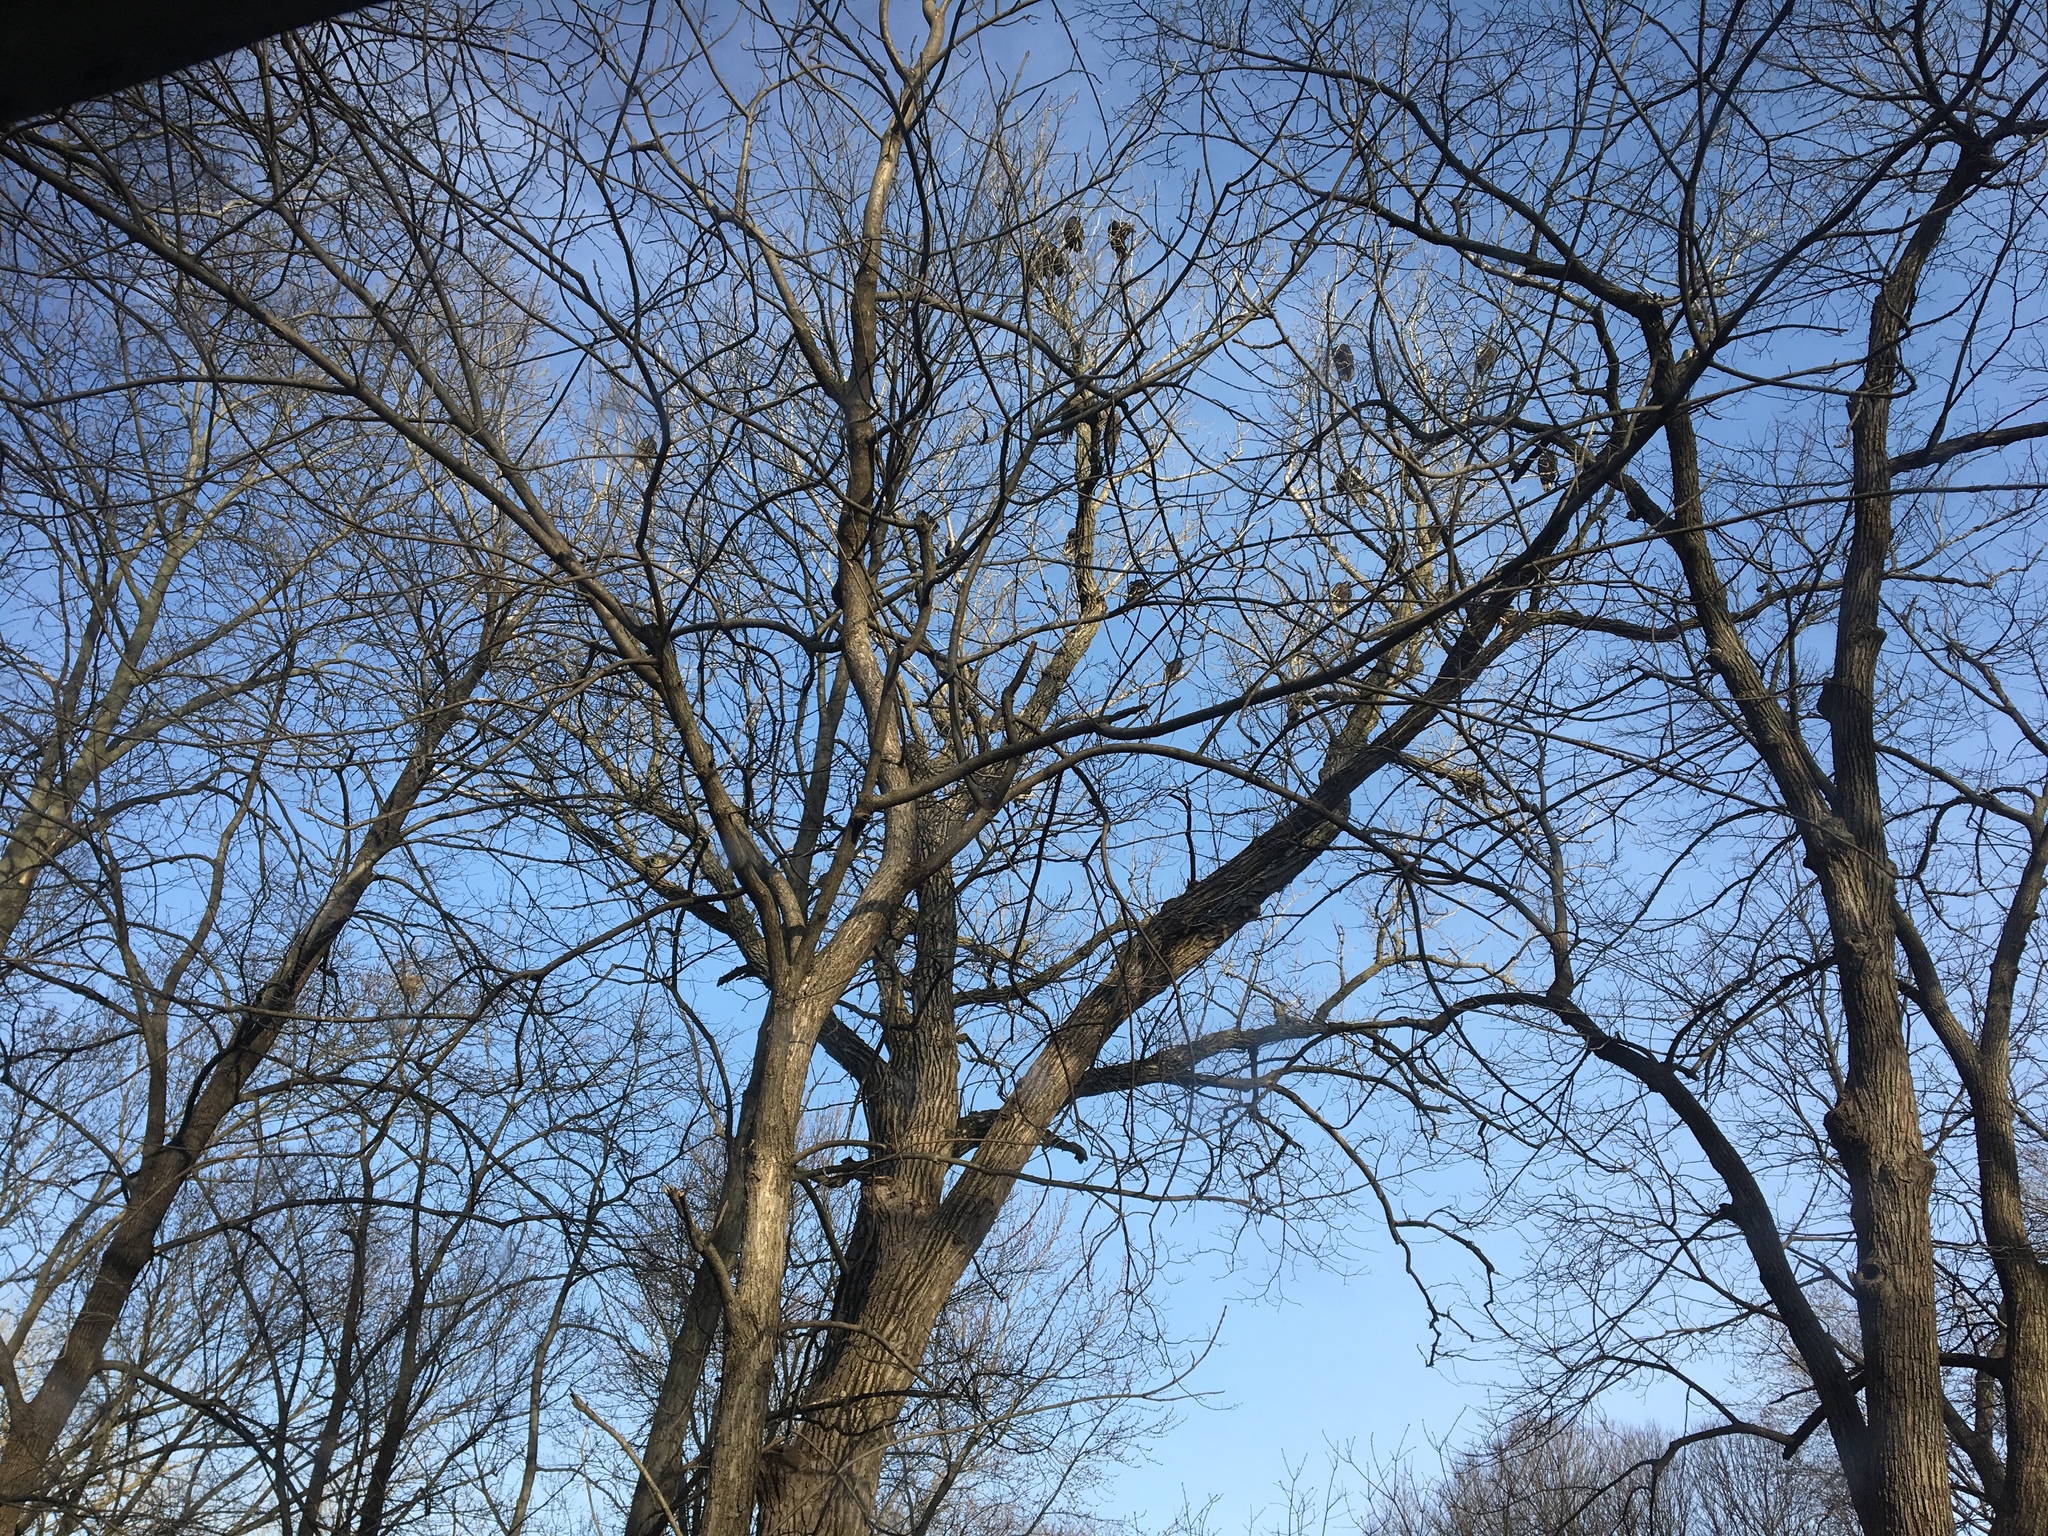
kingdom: Animalia
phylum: Chordata
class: Aves
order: Accipitriformes
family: Cathartidae
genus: Cathartes
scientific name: Cathartes aura
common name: Turkey vulture
